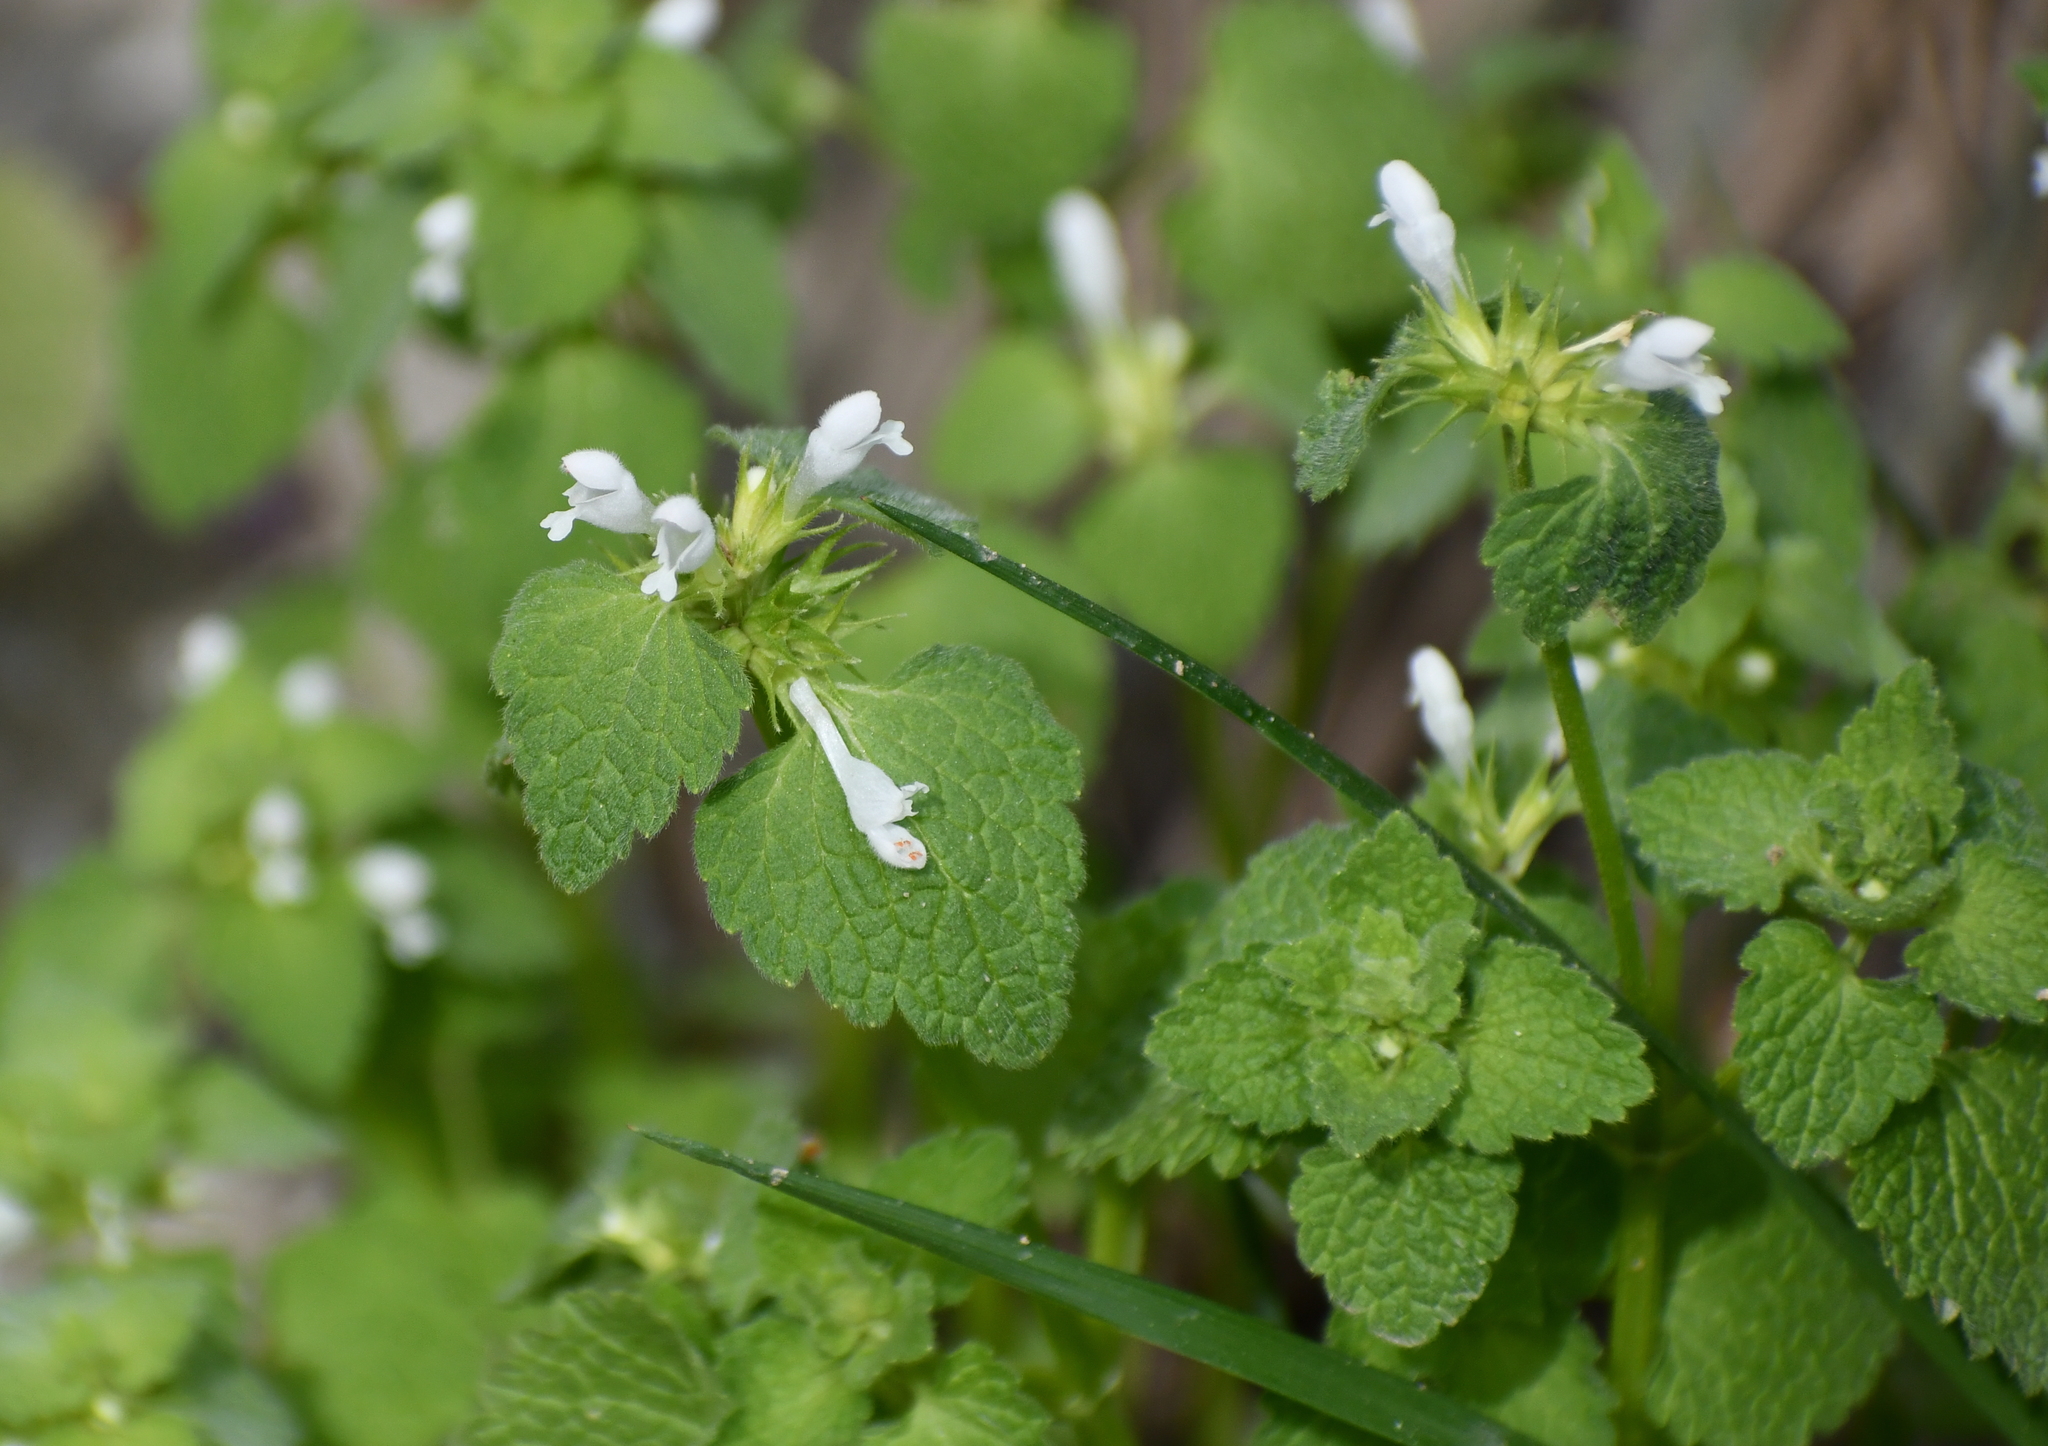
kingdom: Plantae
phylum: Tracheophyta
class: Magnoliopsida
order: Lamiales
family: Lamiaceae
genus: Lamium
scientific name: Lamium purpureum
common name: Red dead-nettle
